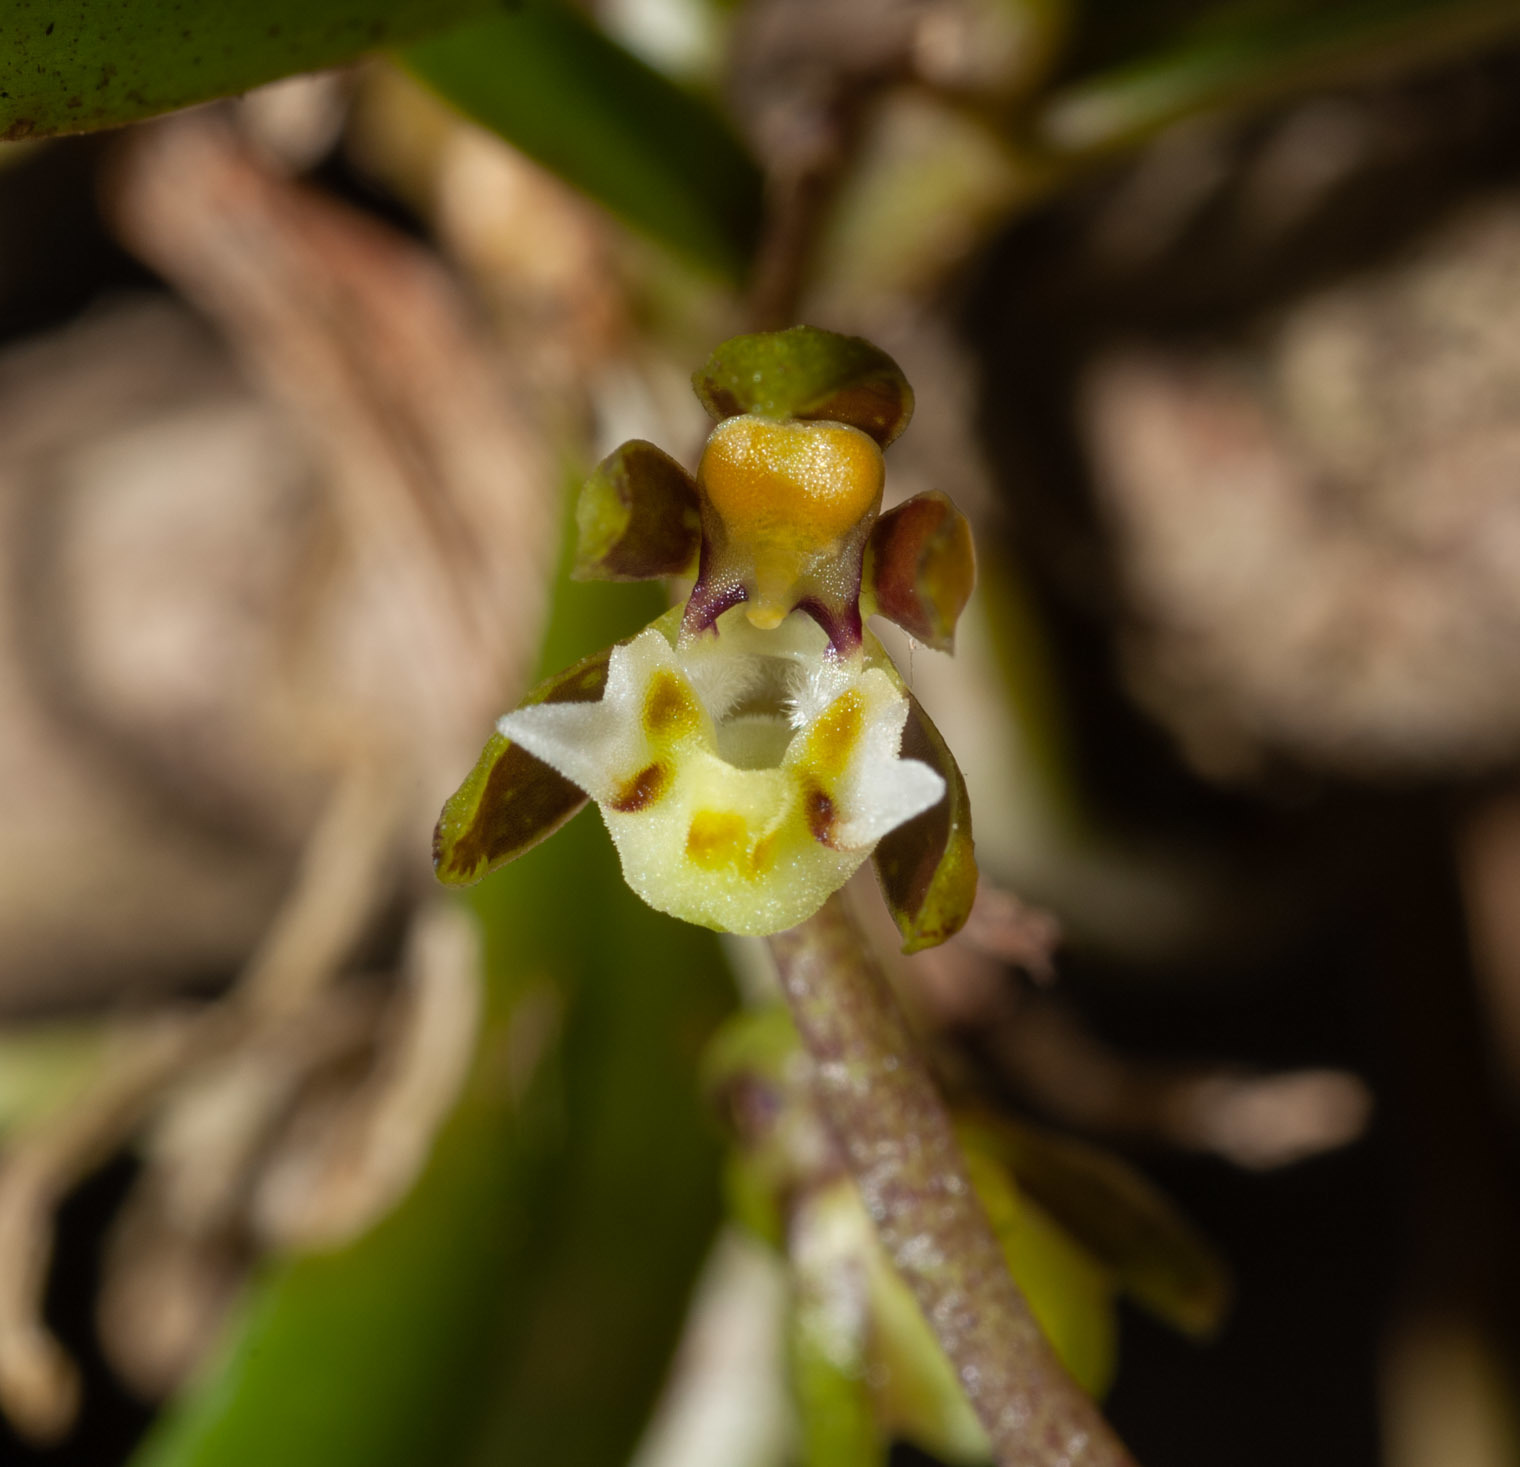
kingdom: Plantae
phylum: Tracheophyta
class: Liliopsida
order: Asparagales
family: Orchidaceae
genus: Plectorrhiza
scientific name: Plectorrhiza tridentata
